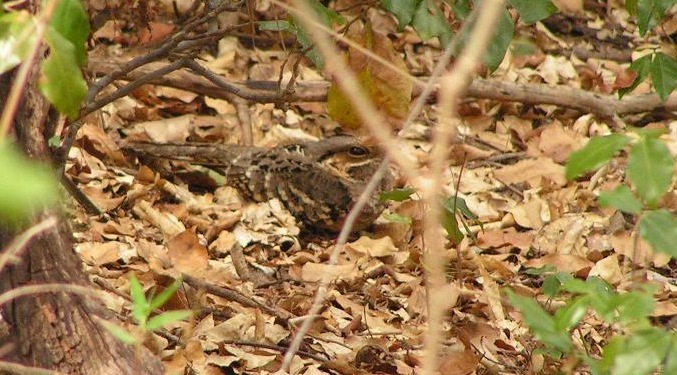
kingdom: Animalia
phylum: Chordata
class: Aves
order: Caprimulgiformes
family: Caprimulgidae
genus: Nyctidromus
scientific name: Nyctidromus albicollis
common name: Pauraque
